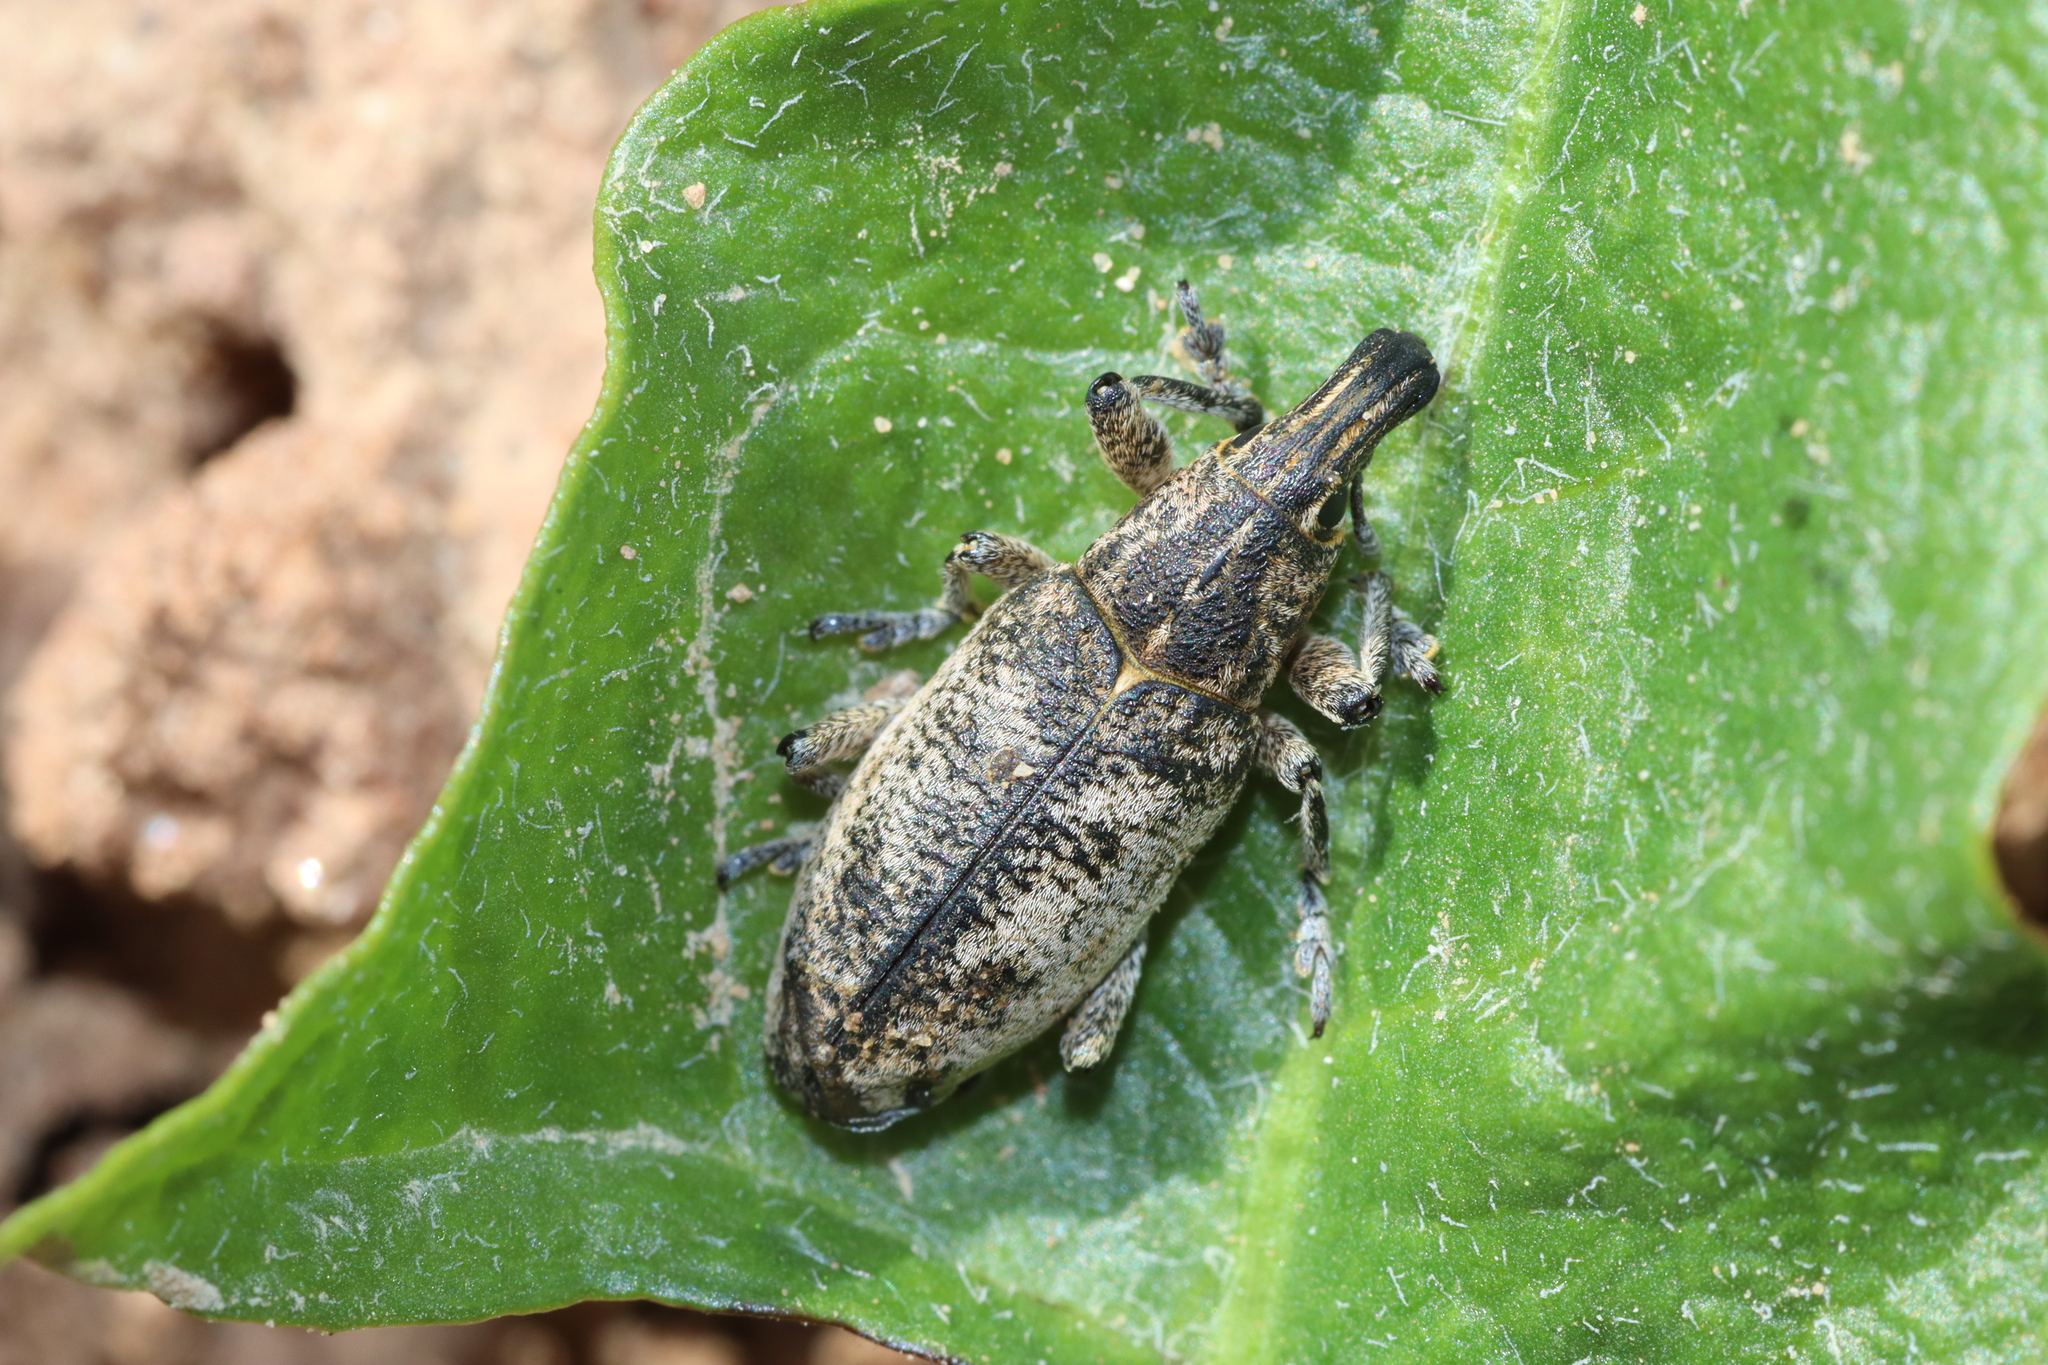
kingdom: Animalia
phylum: Arthropoda
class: Insecta
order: Coleoptera
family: Curculionidae
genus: Cleonis
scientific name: Cleonis pigra
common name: Large thistle weevil
